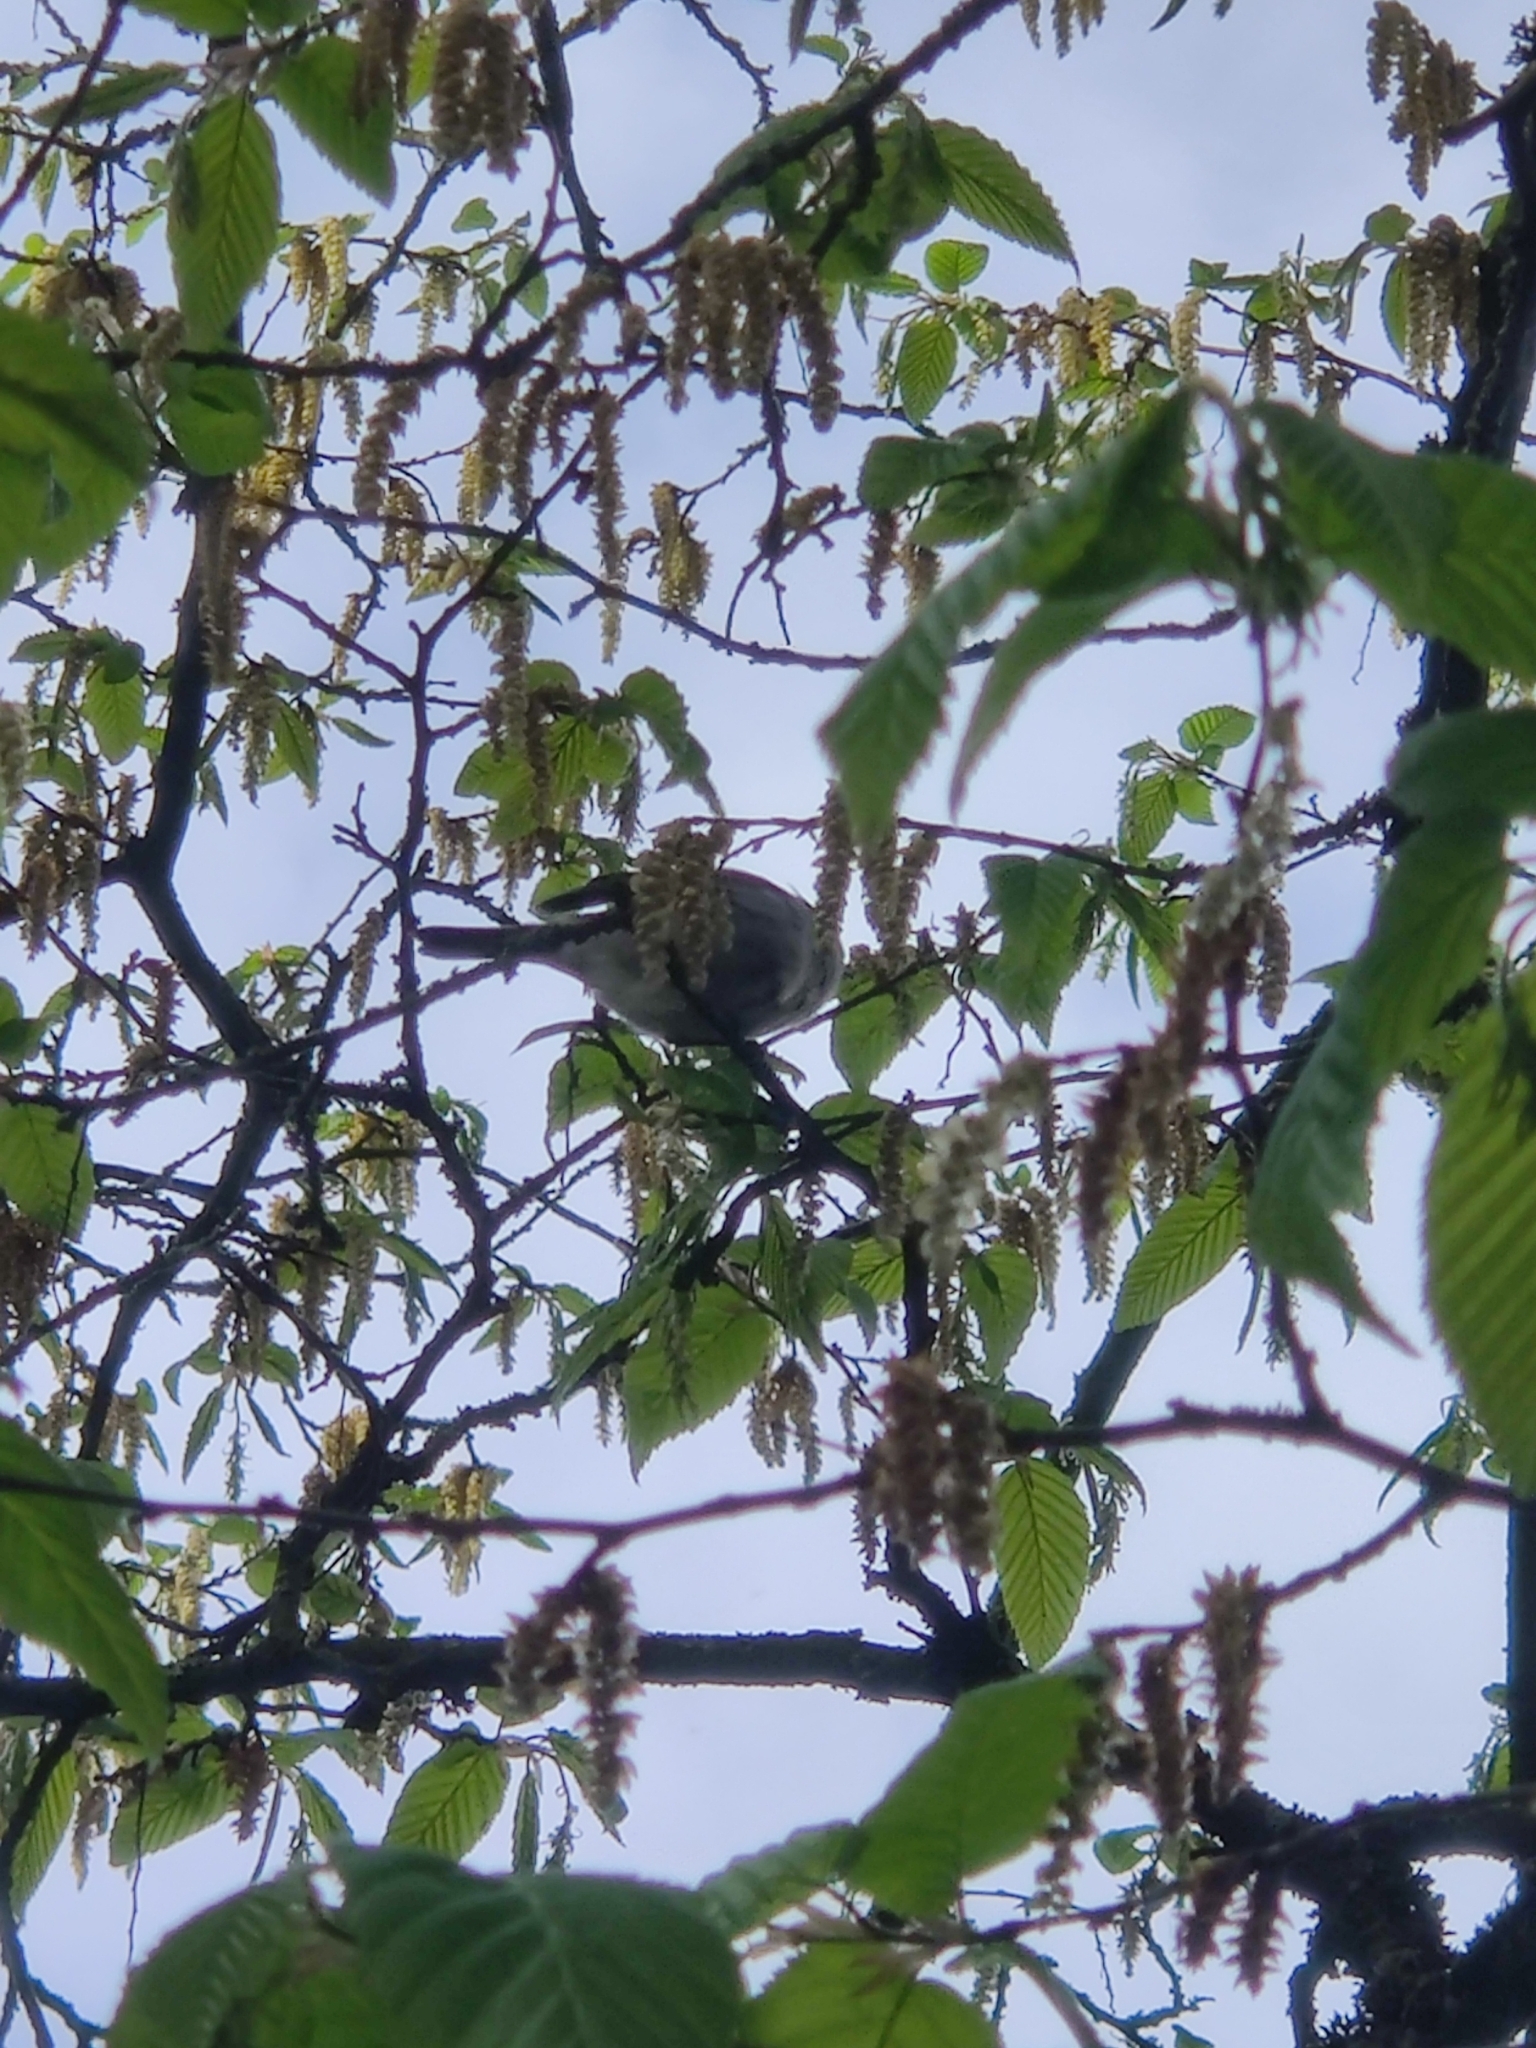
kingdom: Animalia
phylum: Chordata
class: Aves
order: Passeriformes
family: Sylviidae
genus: Sylvia
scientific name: Sylvia atricapilla
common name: Eurasian blackcap
